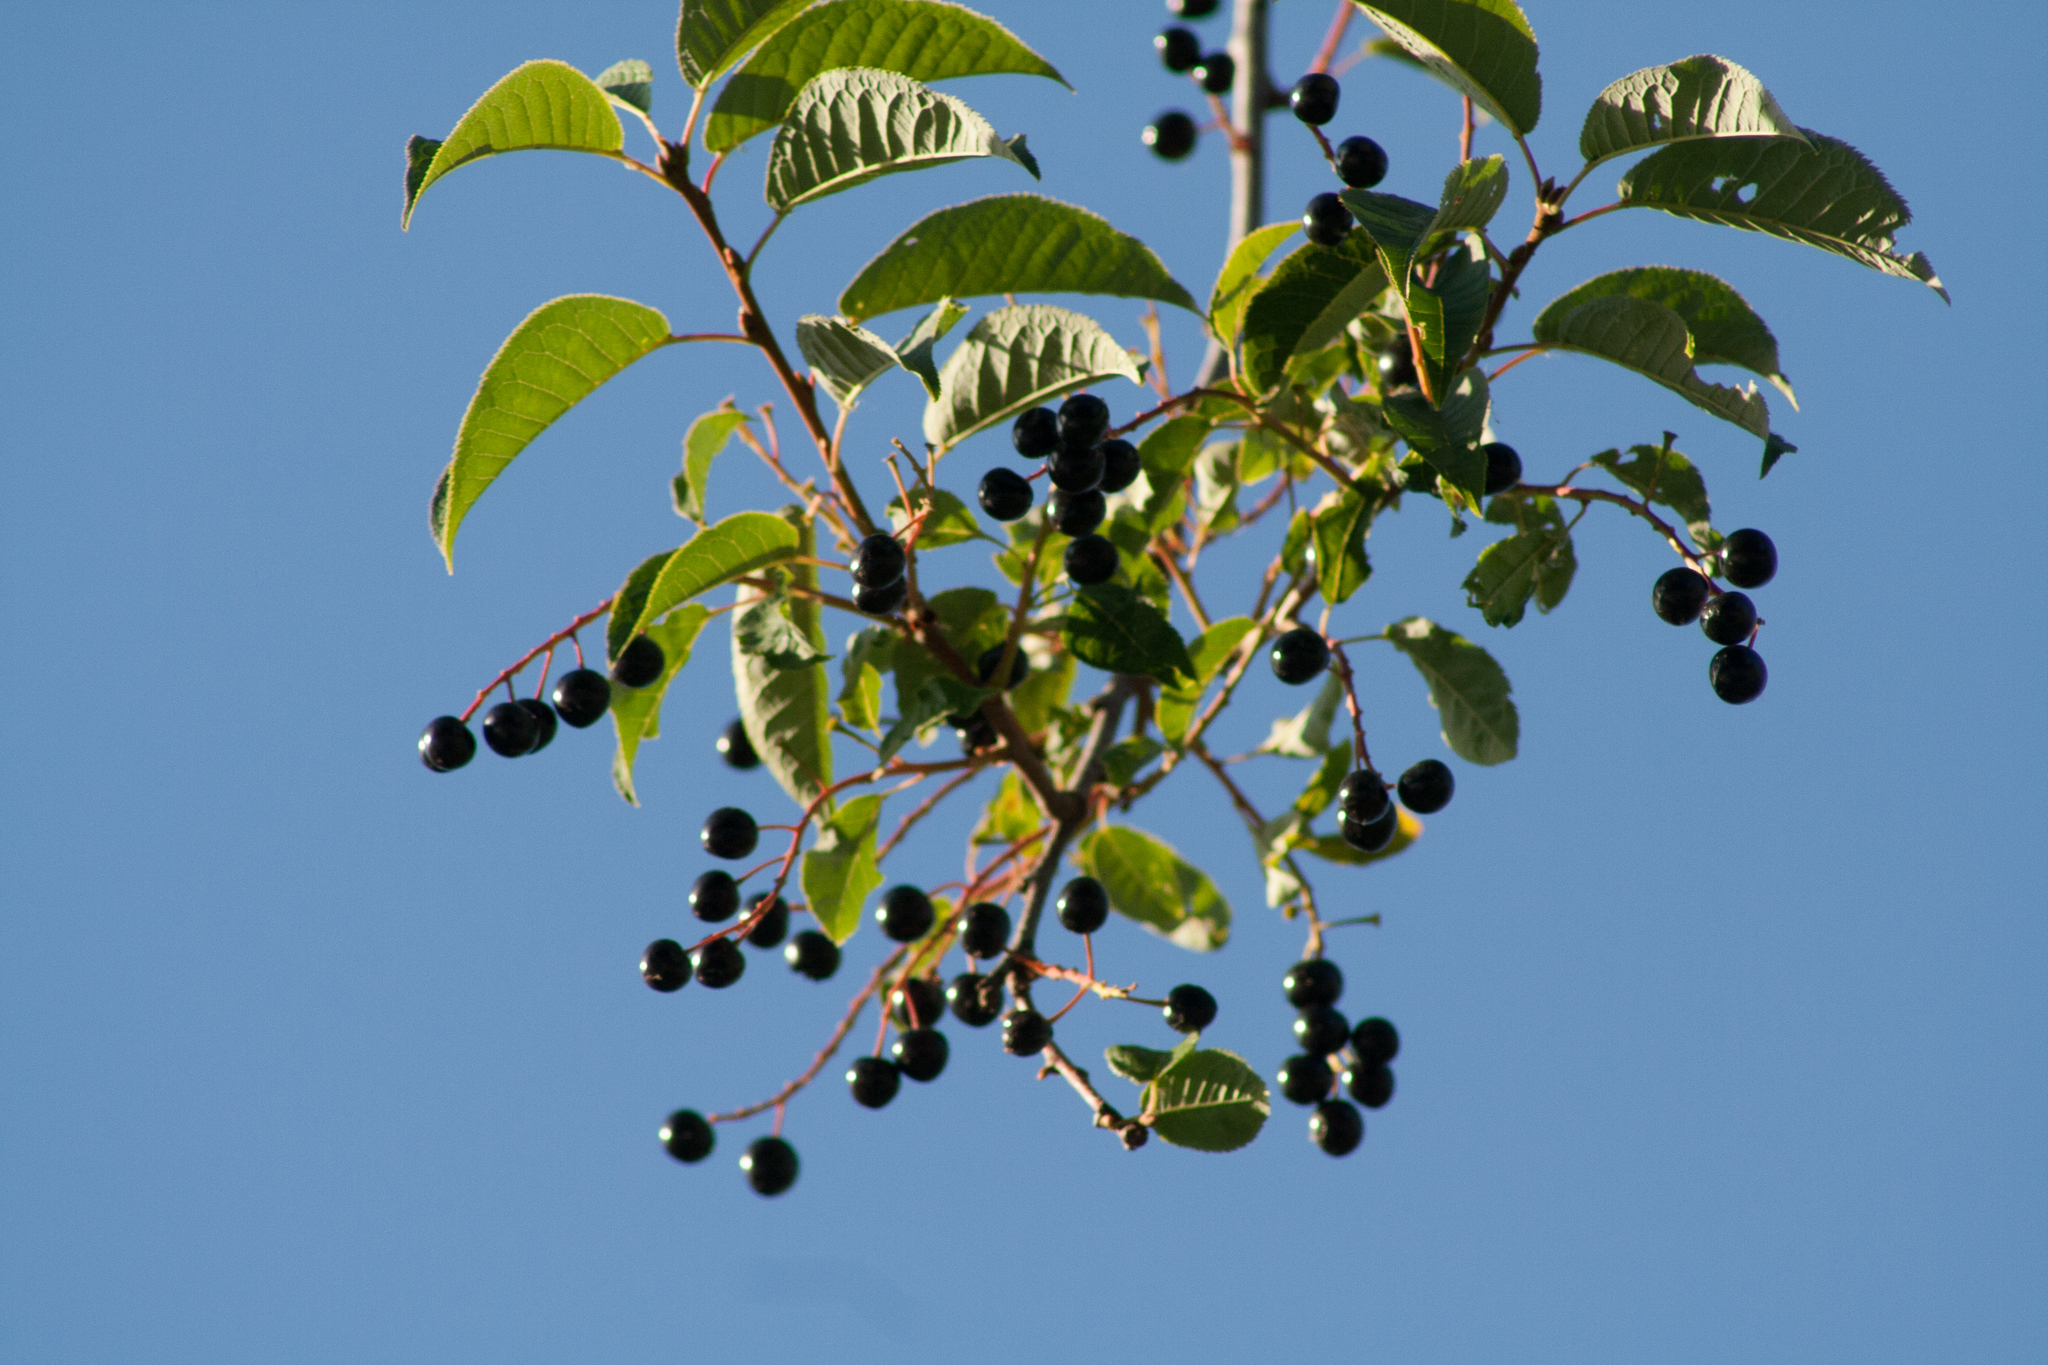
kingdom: Plantae
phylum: Tracheophyta
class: Magnoliopsida
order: Rosales
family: Rosaceae
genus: Prunus
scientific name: Prunus padus
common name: Bird cherry
